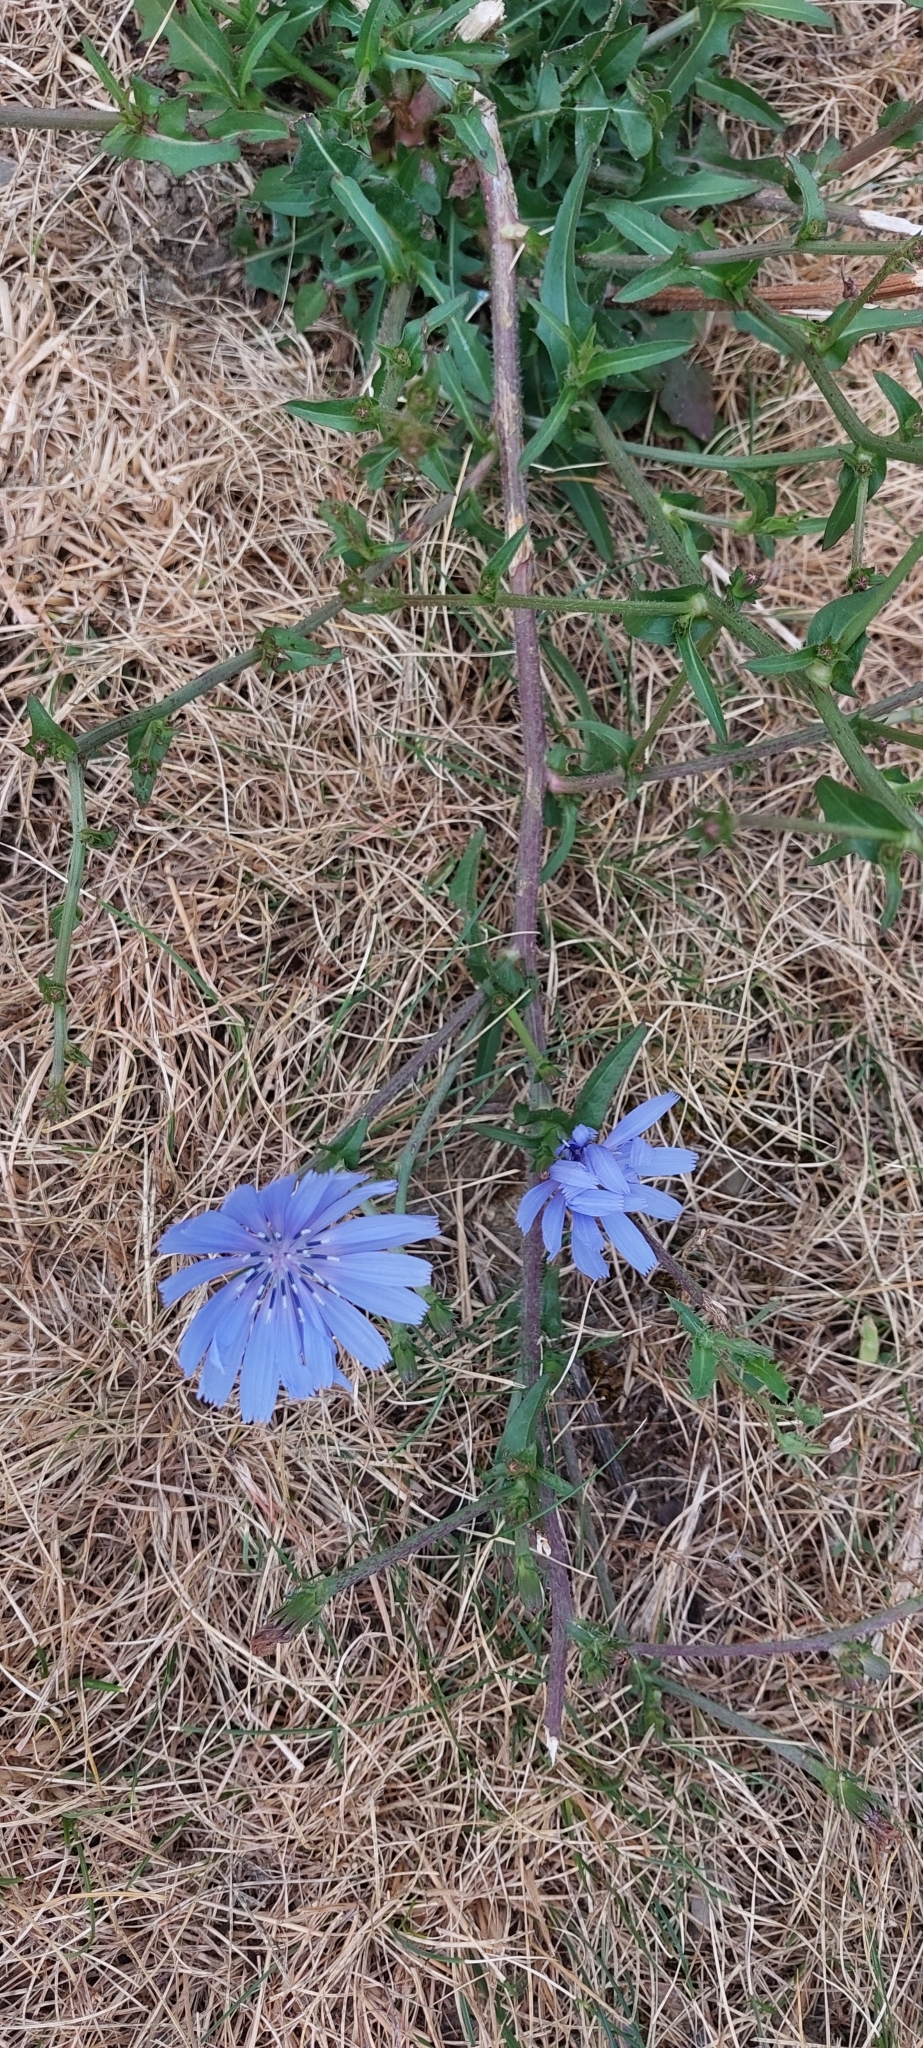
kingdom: Plantae
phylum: Tracheophyta
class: Magnoliopsida
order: Asterales
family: Asteraceae
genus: Cichorium
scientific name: Cichorium intybus
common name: Chicory
